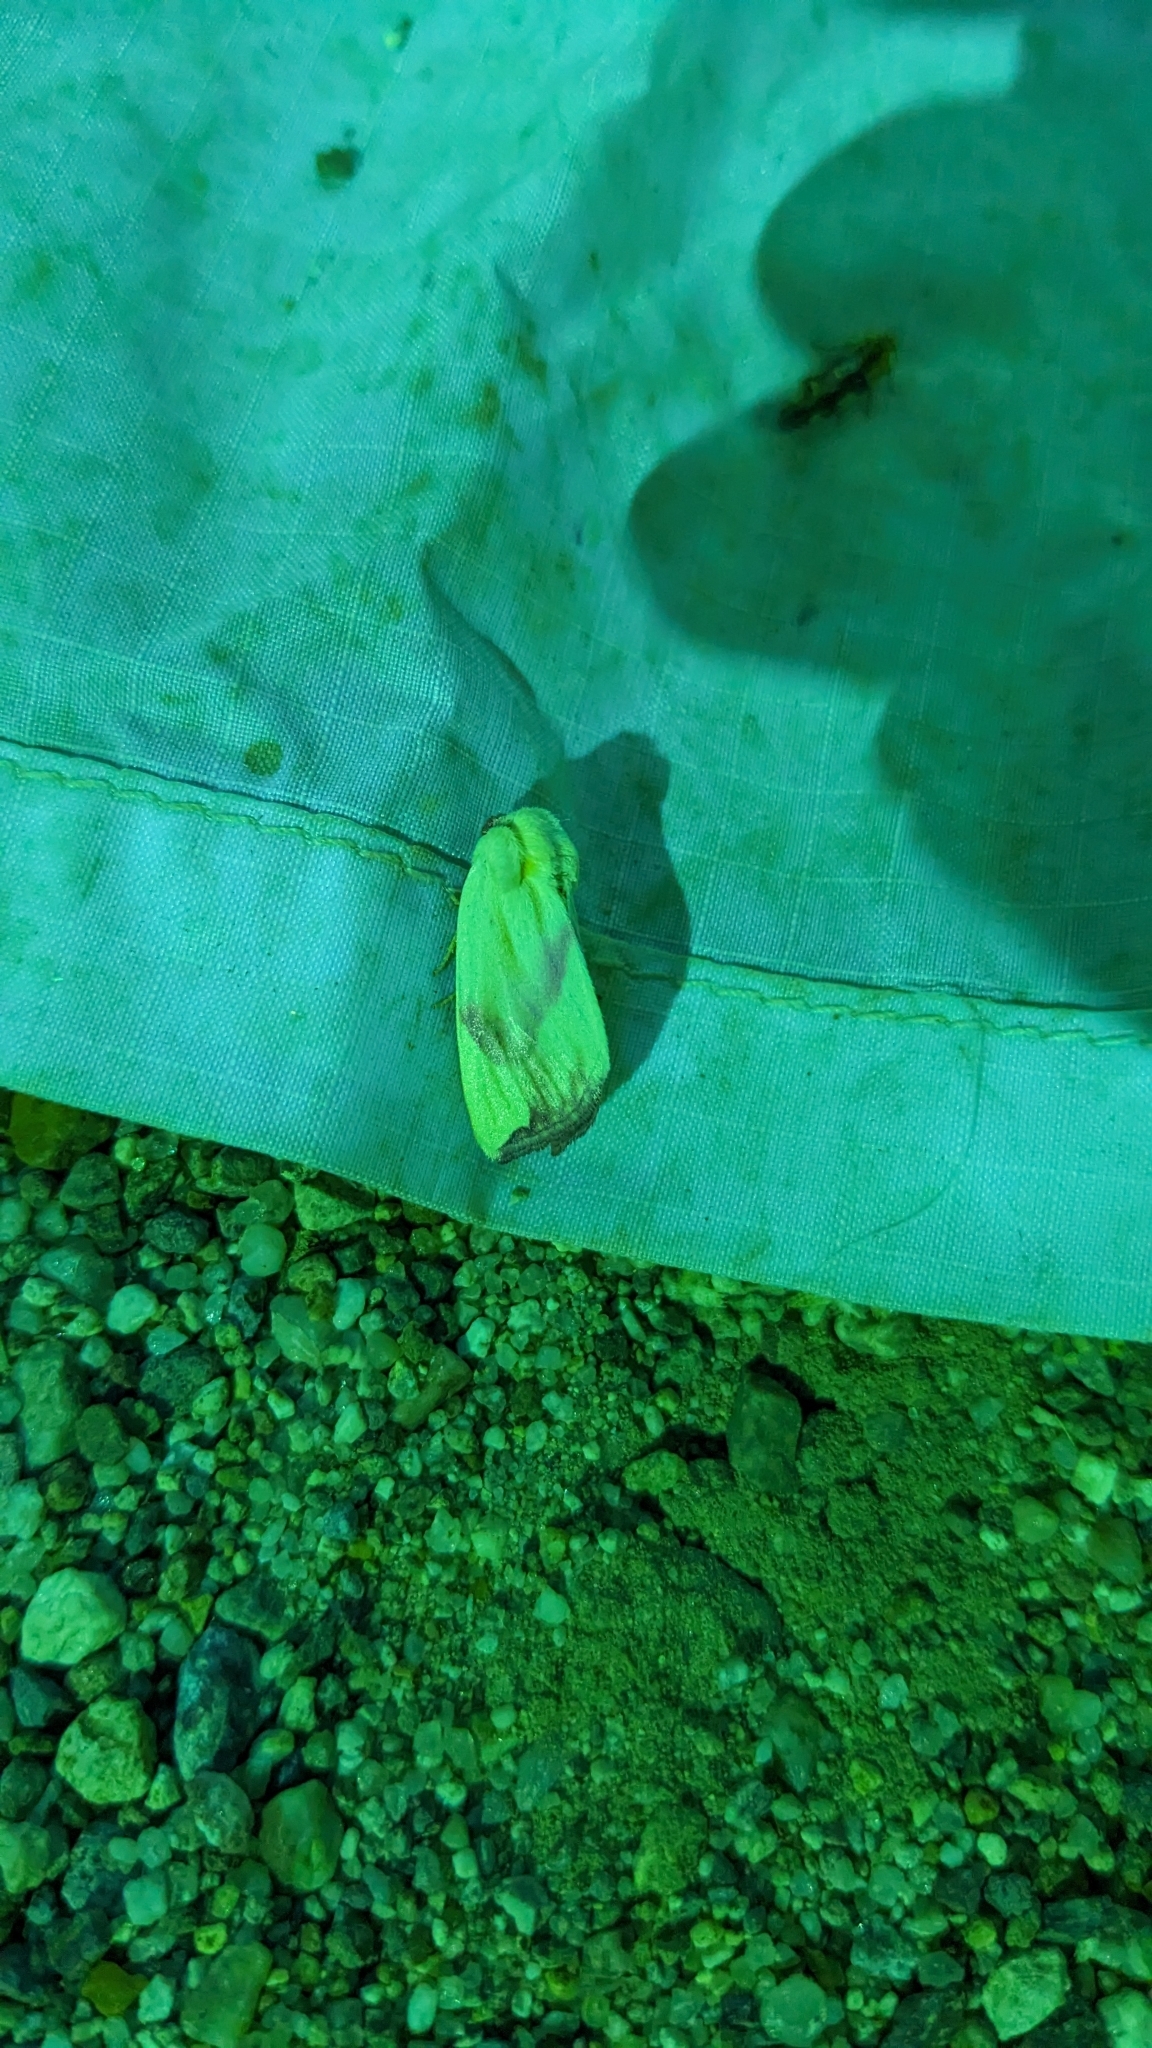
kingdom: Animalia
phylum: Arthropoda
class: Insecta
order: Lepidoptera
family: Noctuidae
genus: Thurberiphaga
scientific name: Thurberiphaga diffusa
